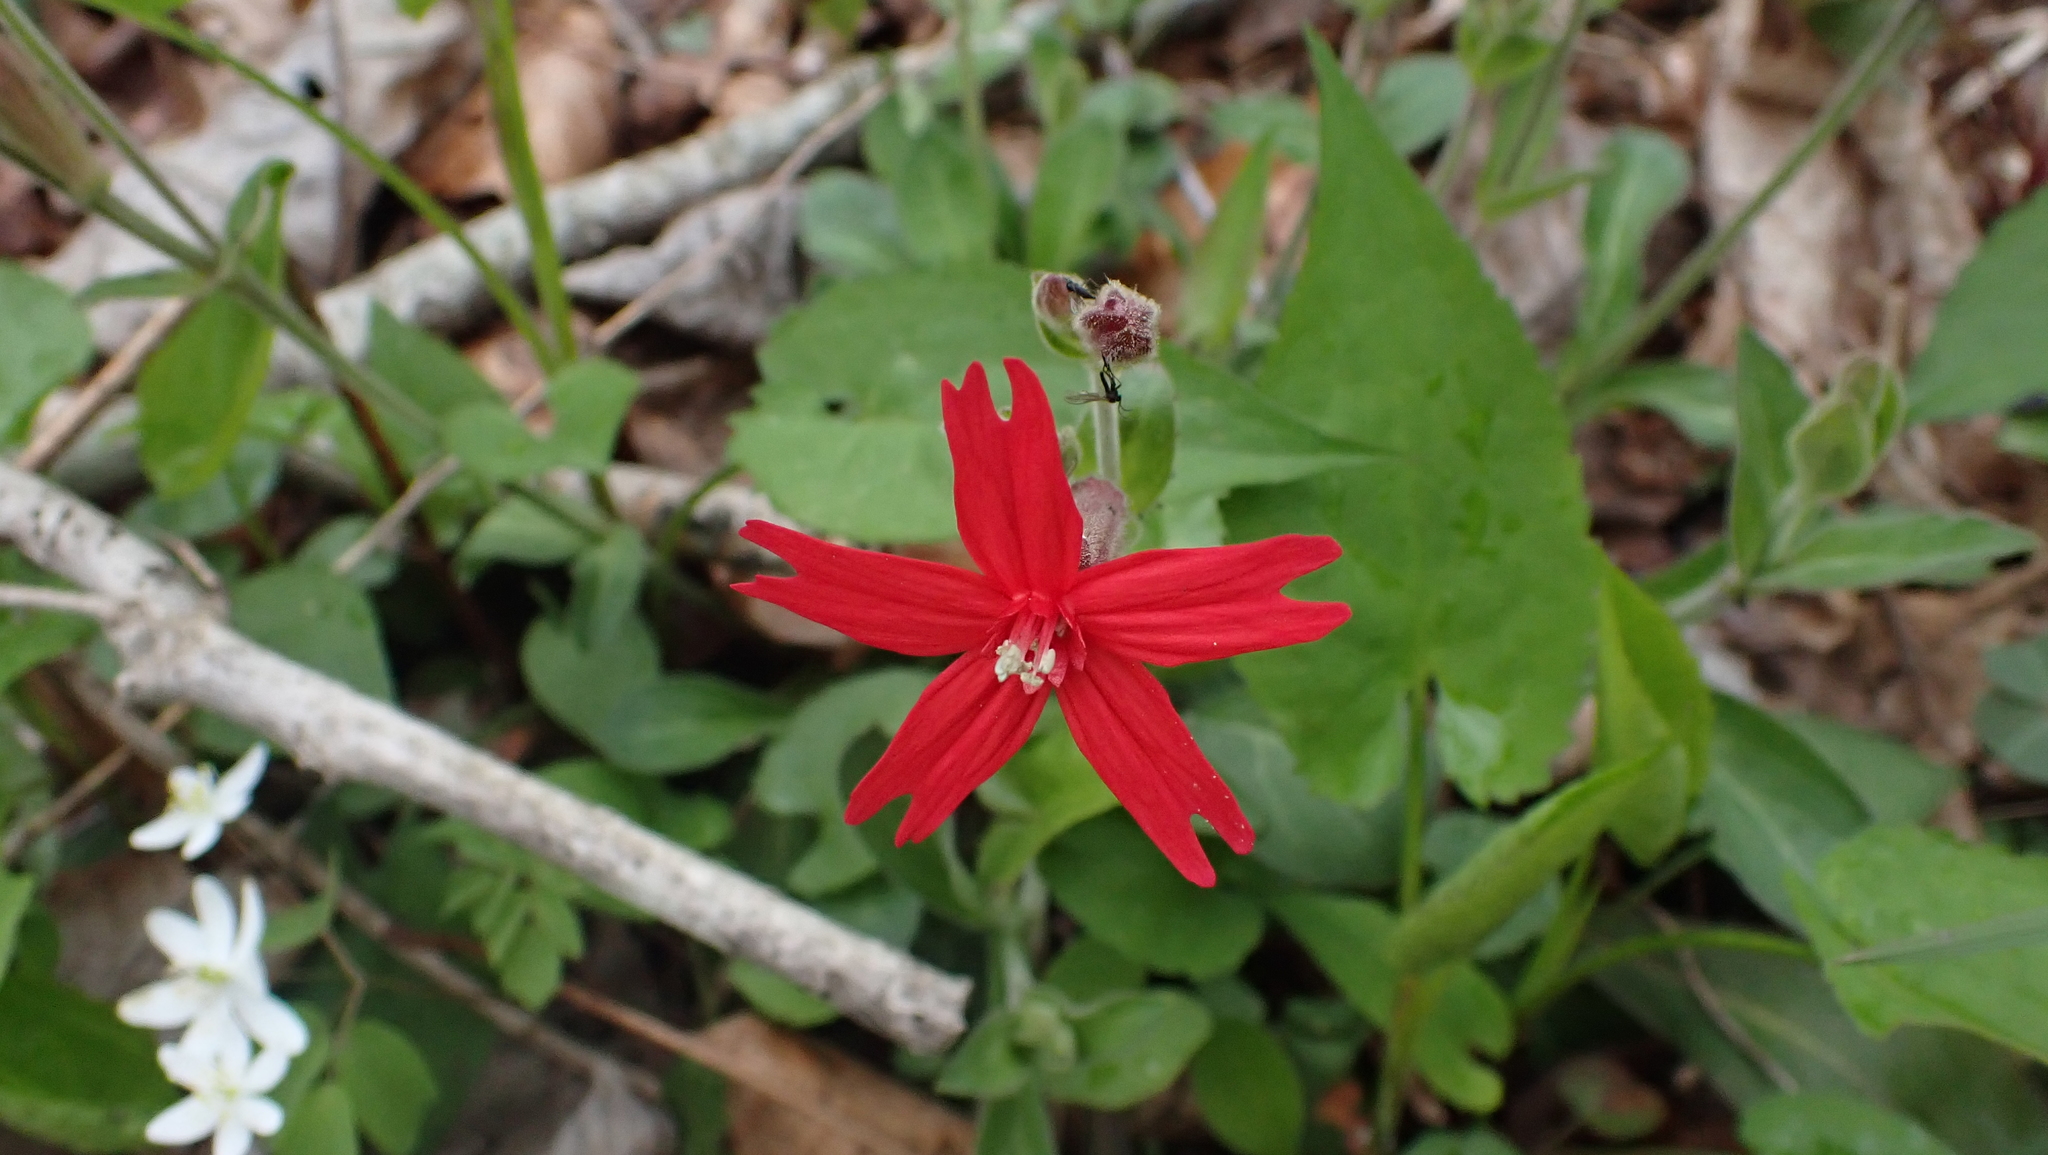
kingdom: Plantae
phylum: Tracheophyta
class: Magnoliopsida
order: Caryophyllales
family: Caryophyllaceae
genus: Silene
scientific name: Silene virginica
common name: Fire-pink
